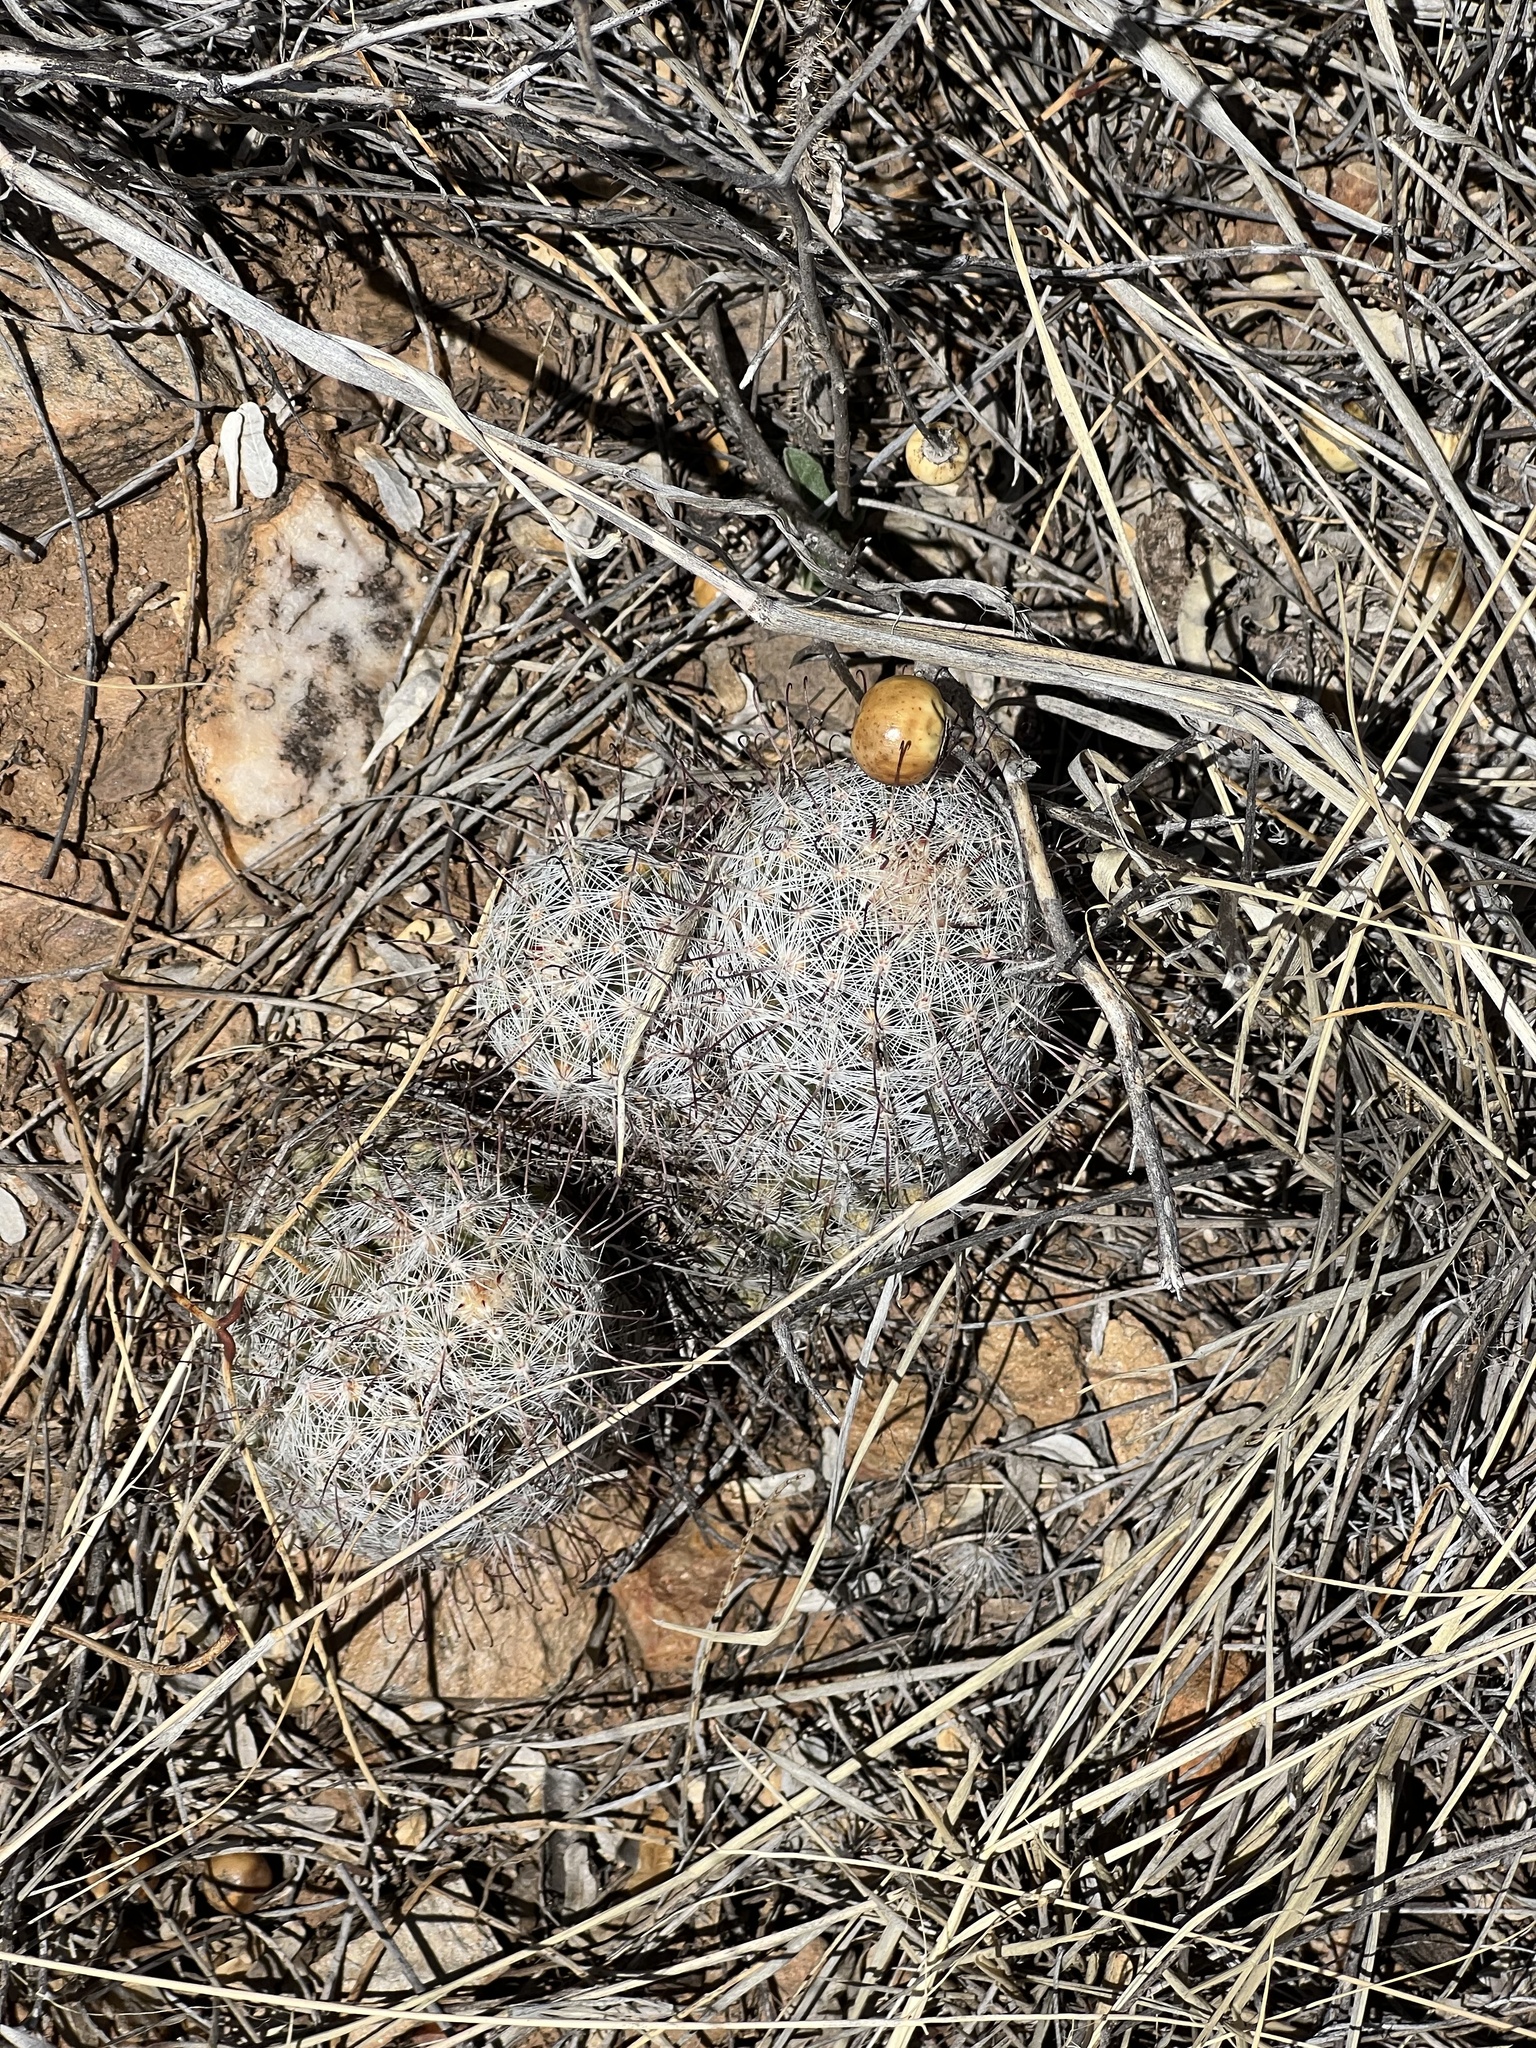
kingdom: Plantae
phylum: Tracheophyta
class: Magnoliopsida
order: Caryophyllales
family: Cactaceae
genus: Cochemiea
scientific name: Cochemiea grahamii
